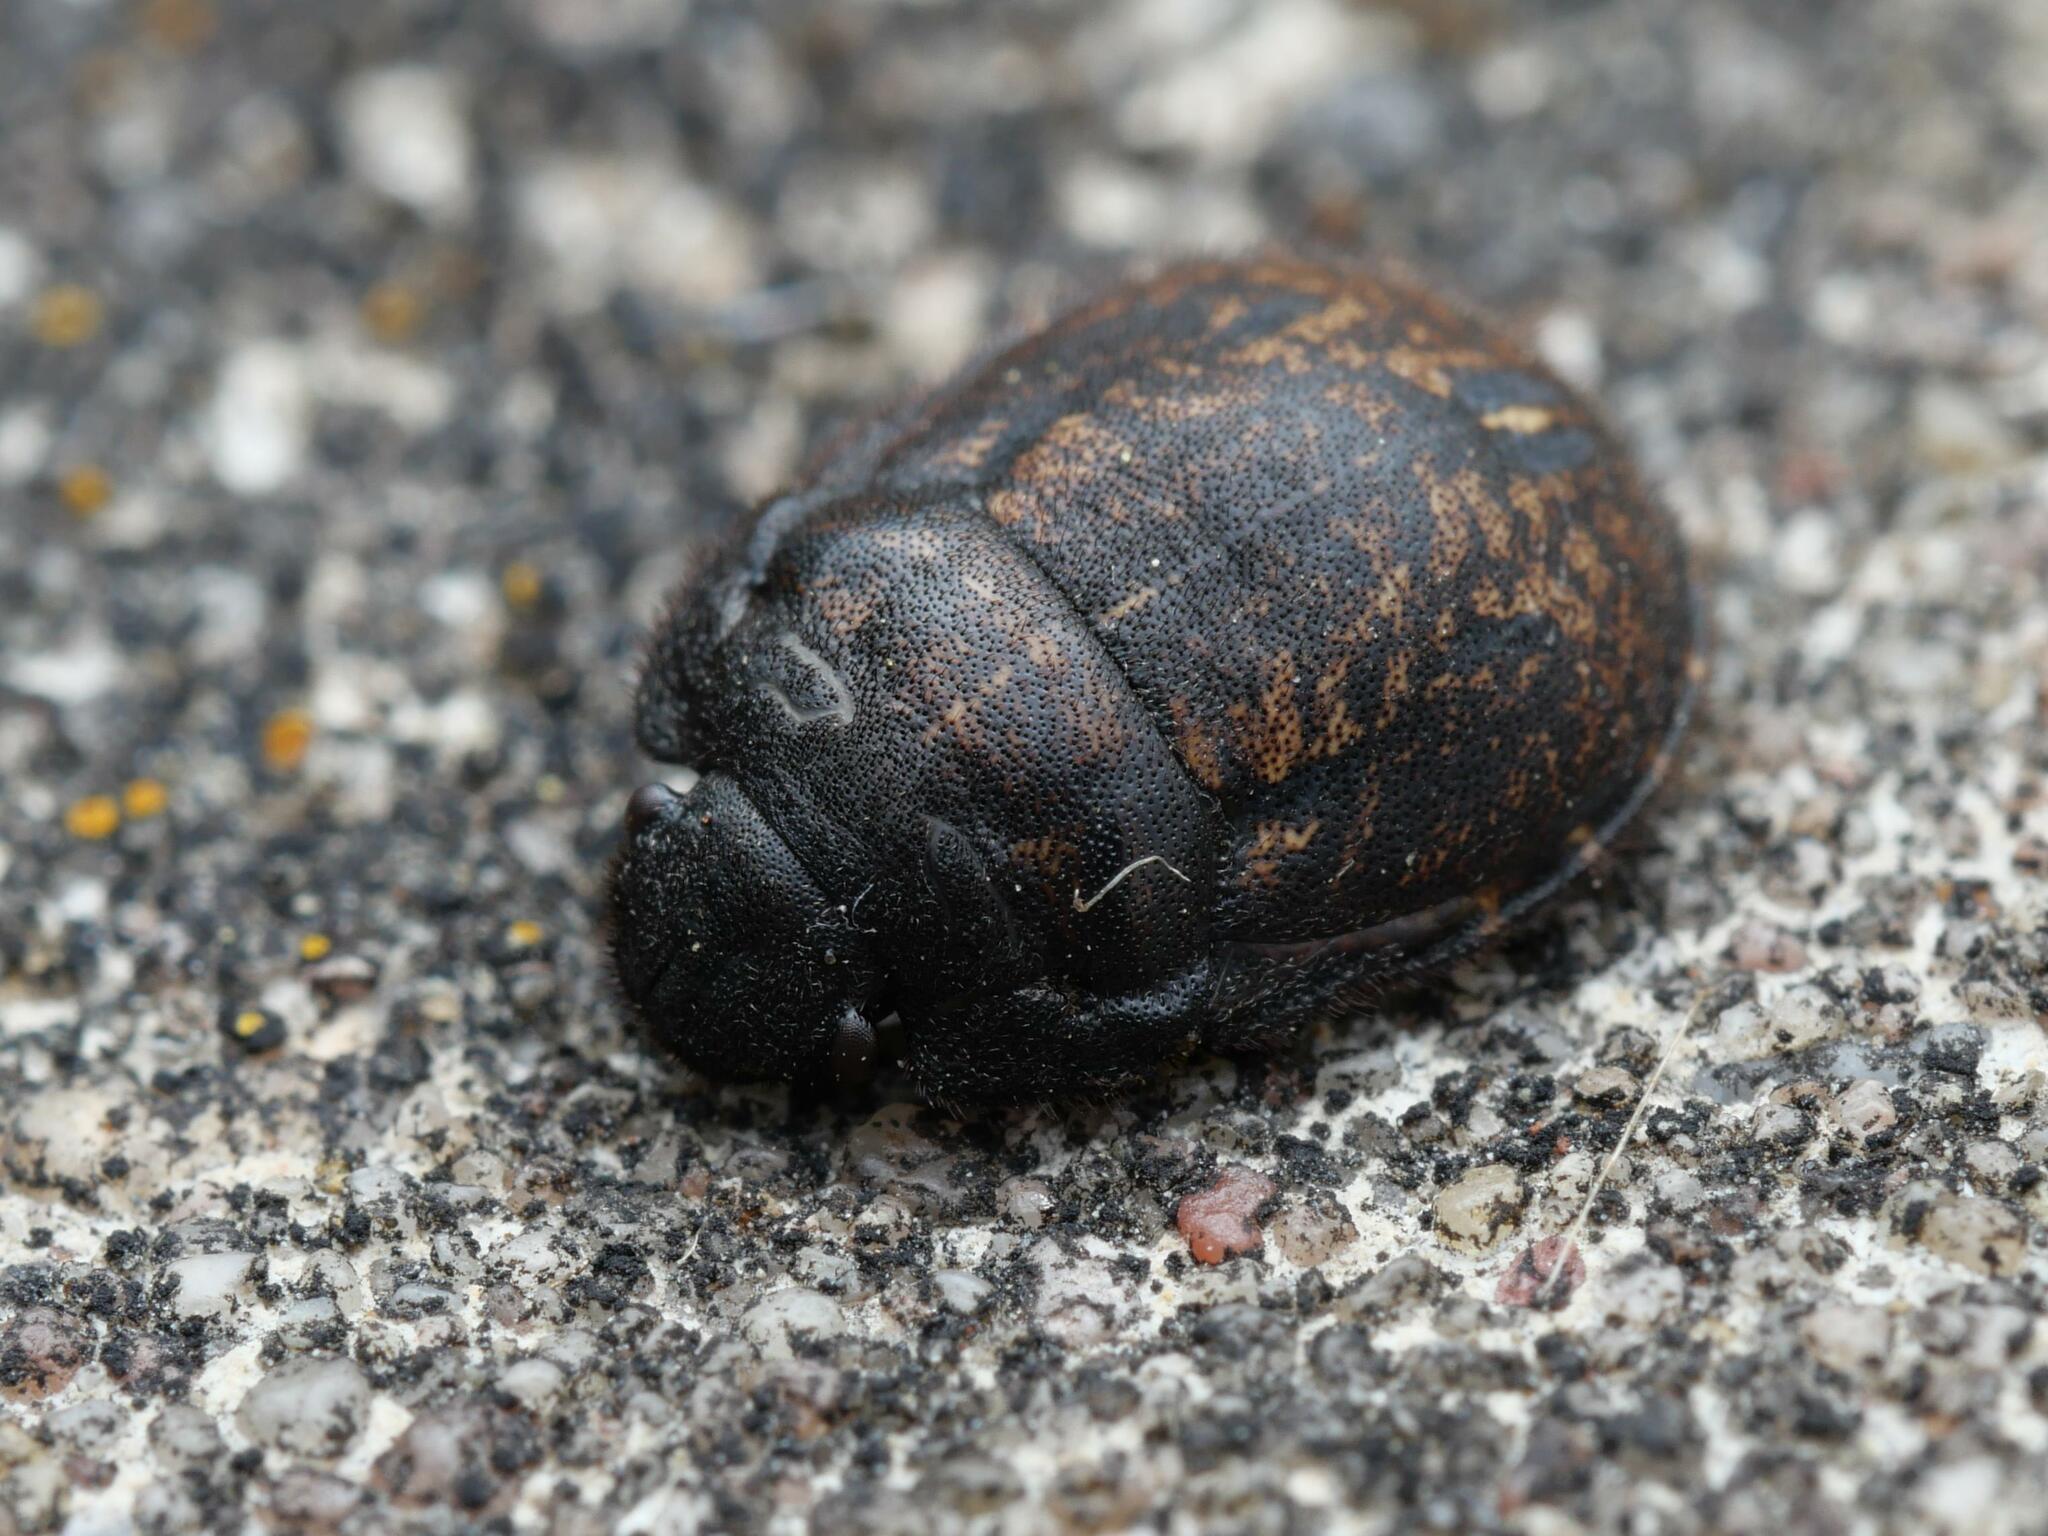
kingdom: Animalia
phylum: Arthropoda
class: Insecta
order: Hemiptera
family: Scutelleridae
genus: Odontoscelis
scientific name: Odontoscelis fuliginosa
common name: Greater streaked shieldbug
